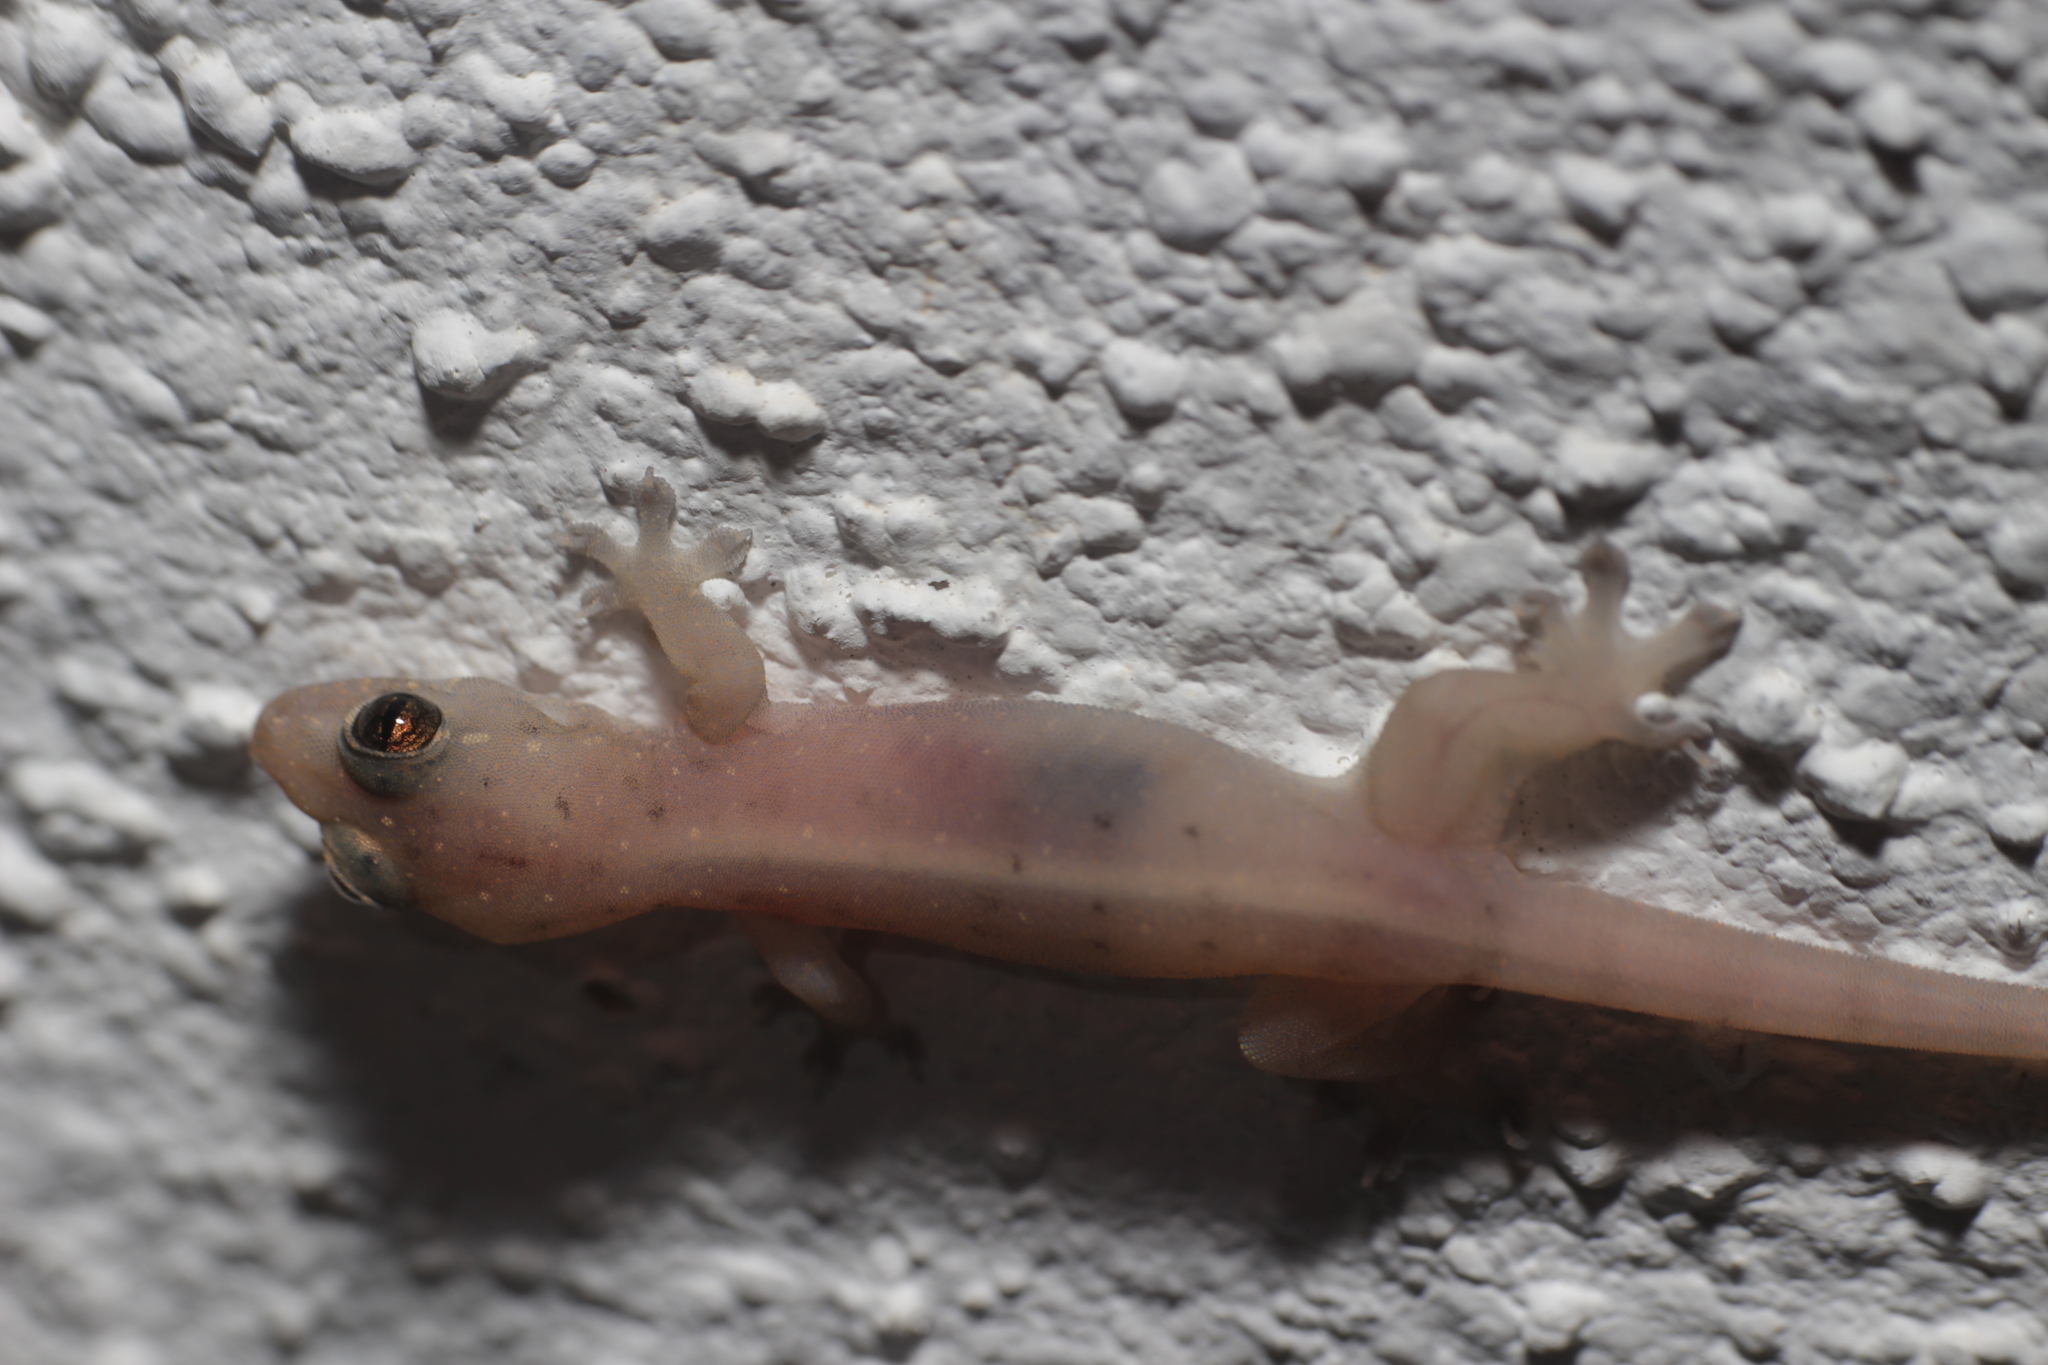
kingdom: Animalia
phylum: Chordata
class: Squamata
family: Gekkonidae
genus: Gehyra
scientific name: Gehyra mutilata
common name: Stump-toed gecko
